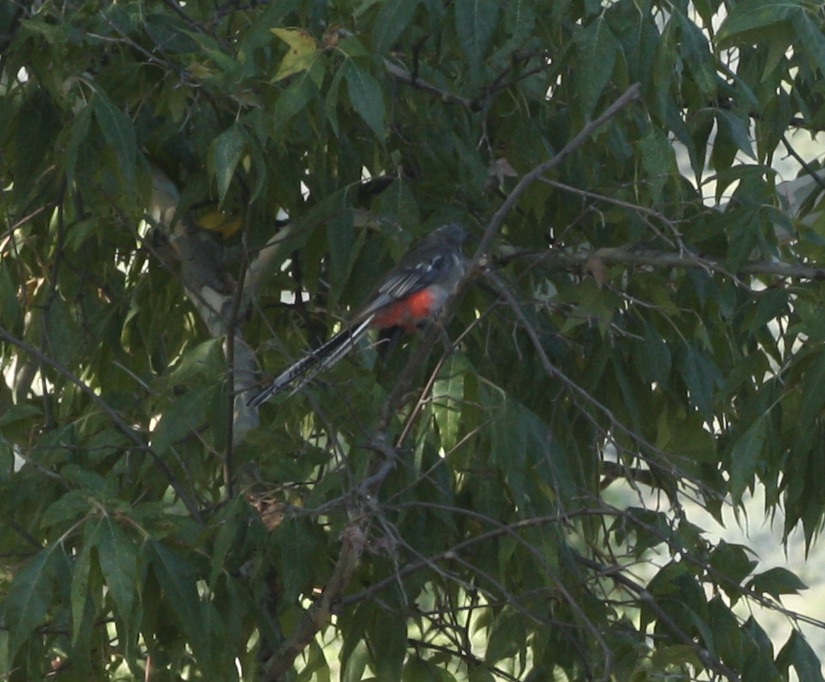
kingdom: Animalia
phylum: Chordata
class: Aves
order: Trogoniformes
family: Trogonidae
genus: Trogon
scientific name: Trogon elegans
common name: Elegant trogon
